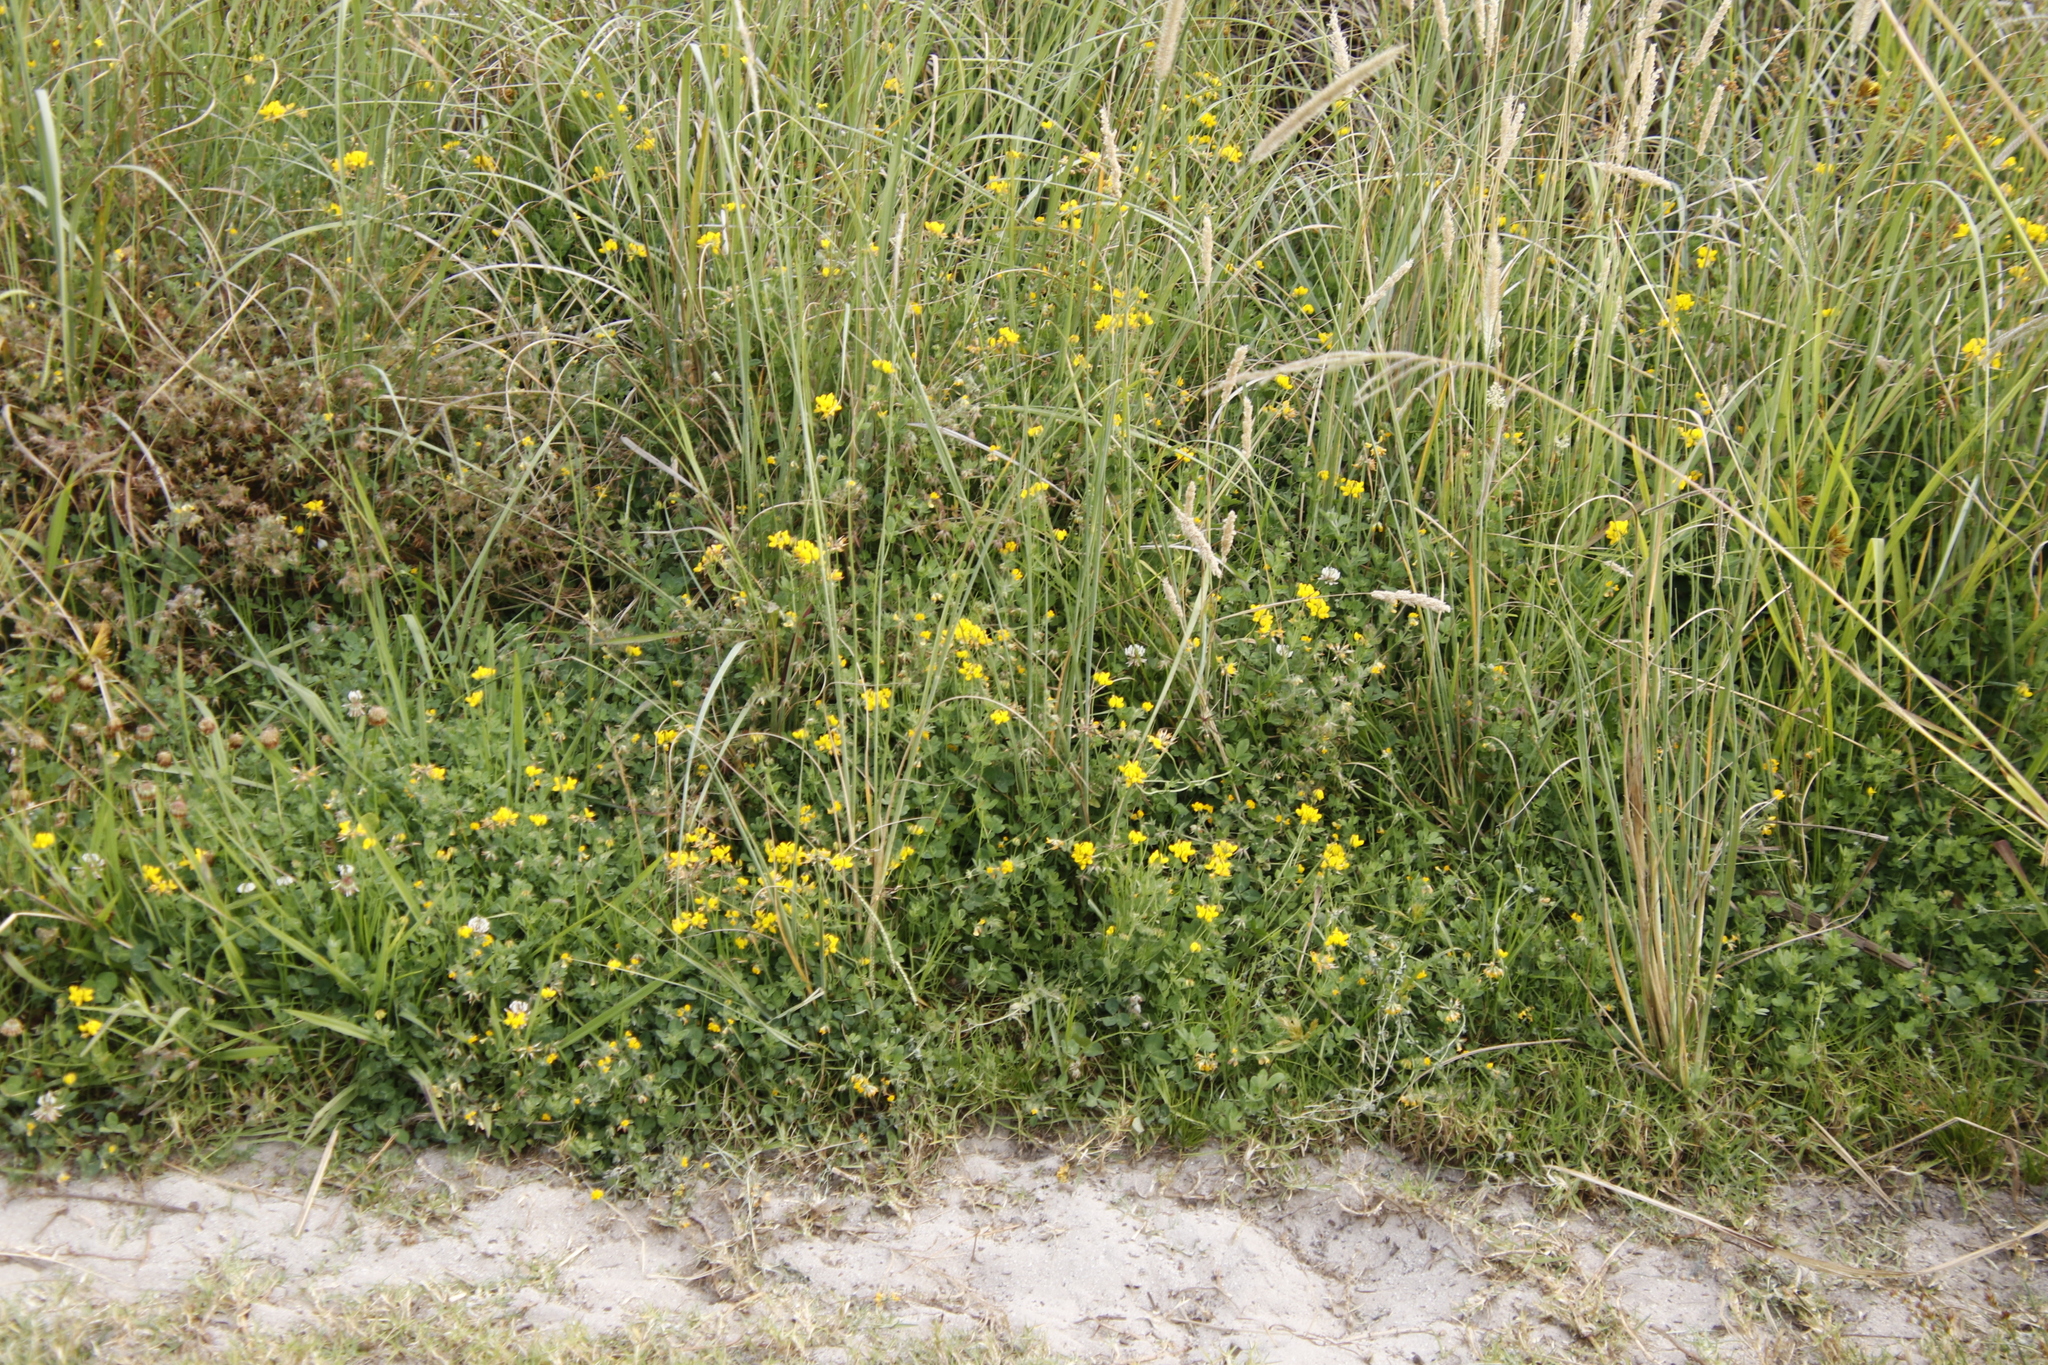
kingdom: Plantae
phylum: Tracheophyta
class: Magnoliopsida
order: Fabales
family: Fabaceae
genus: Lotus
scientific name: Lotus corniculatus
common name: Common bird's-foot-trefoil
